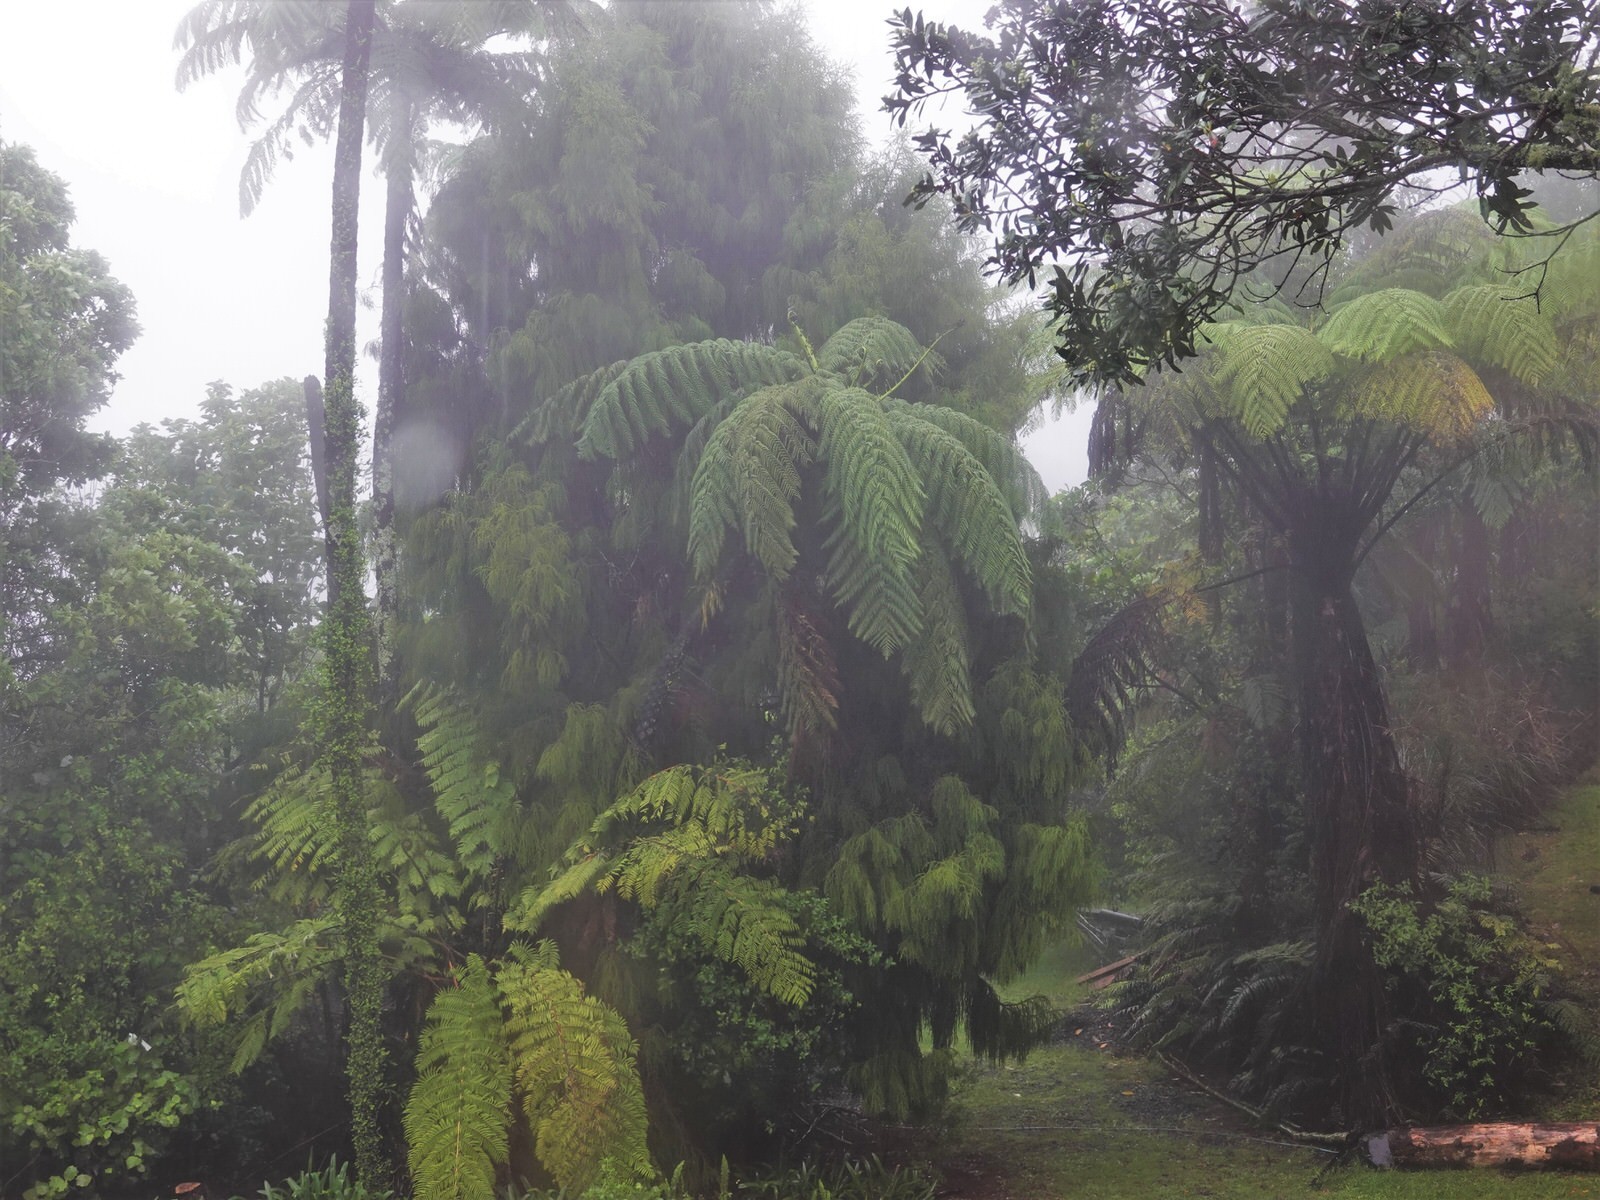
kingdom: Plantae
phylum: Tracheophyta
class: Polypodiopsida
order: Cyatheales
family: Cyatheaceae
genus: Sphaeropteris
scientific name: Sphaeropteris medullaris
